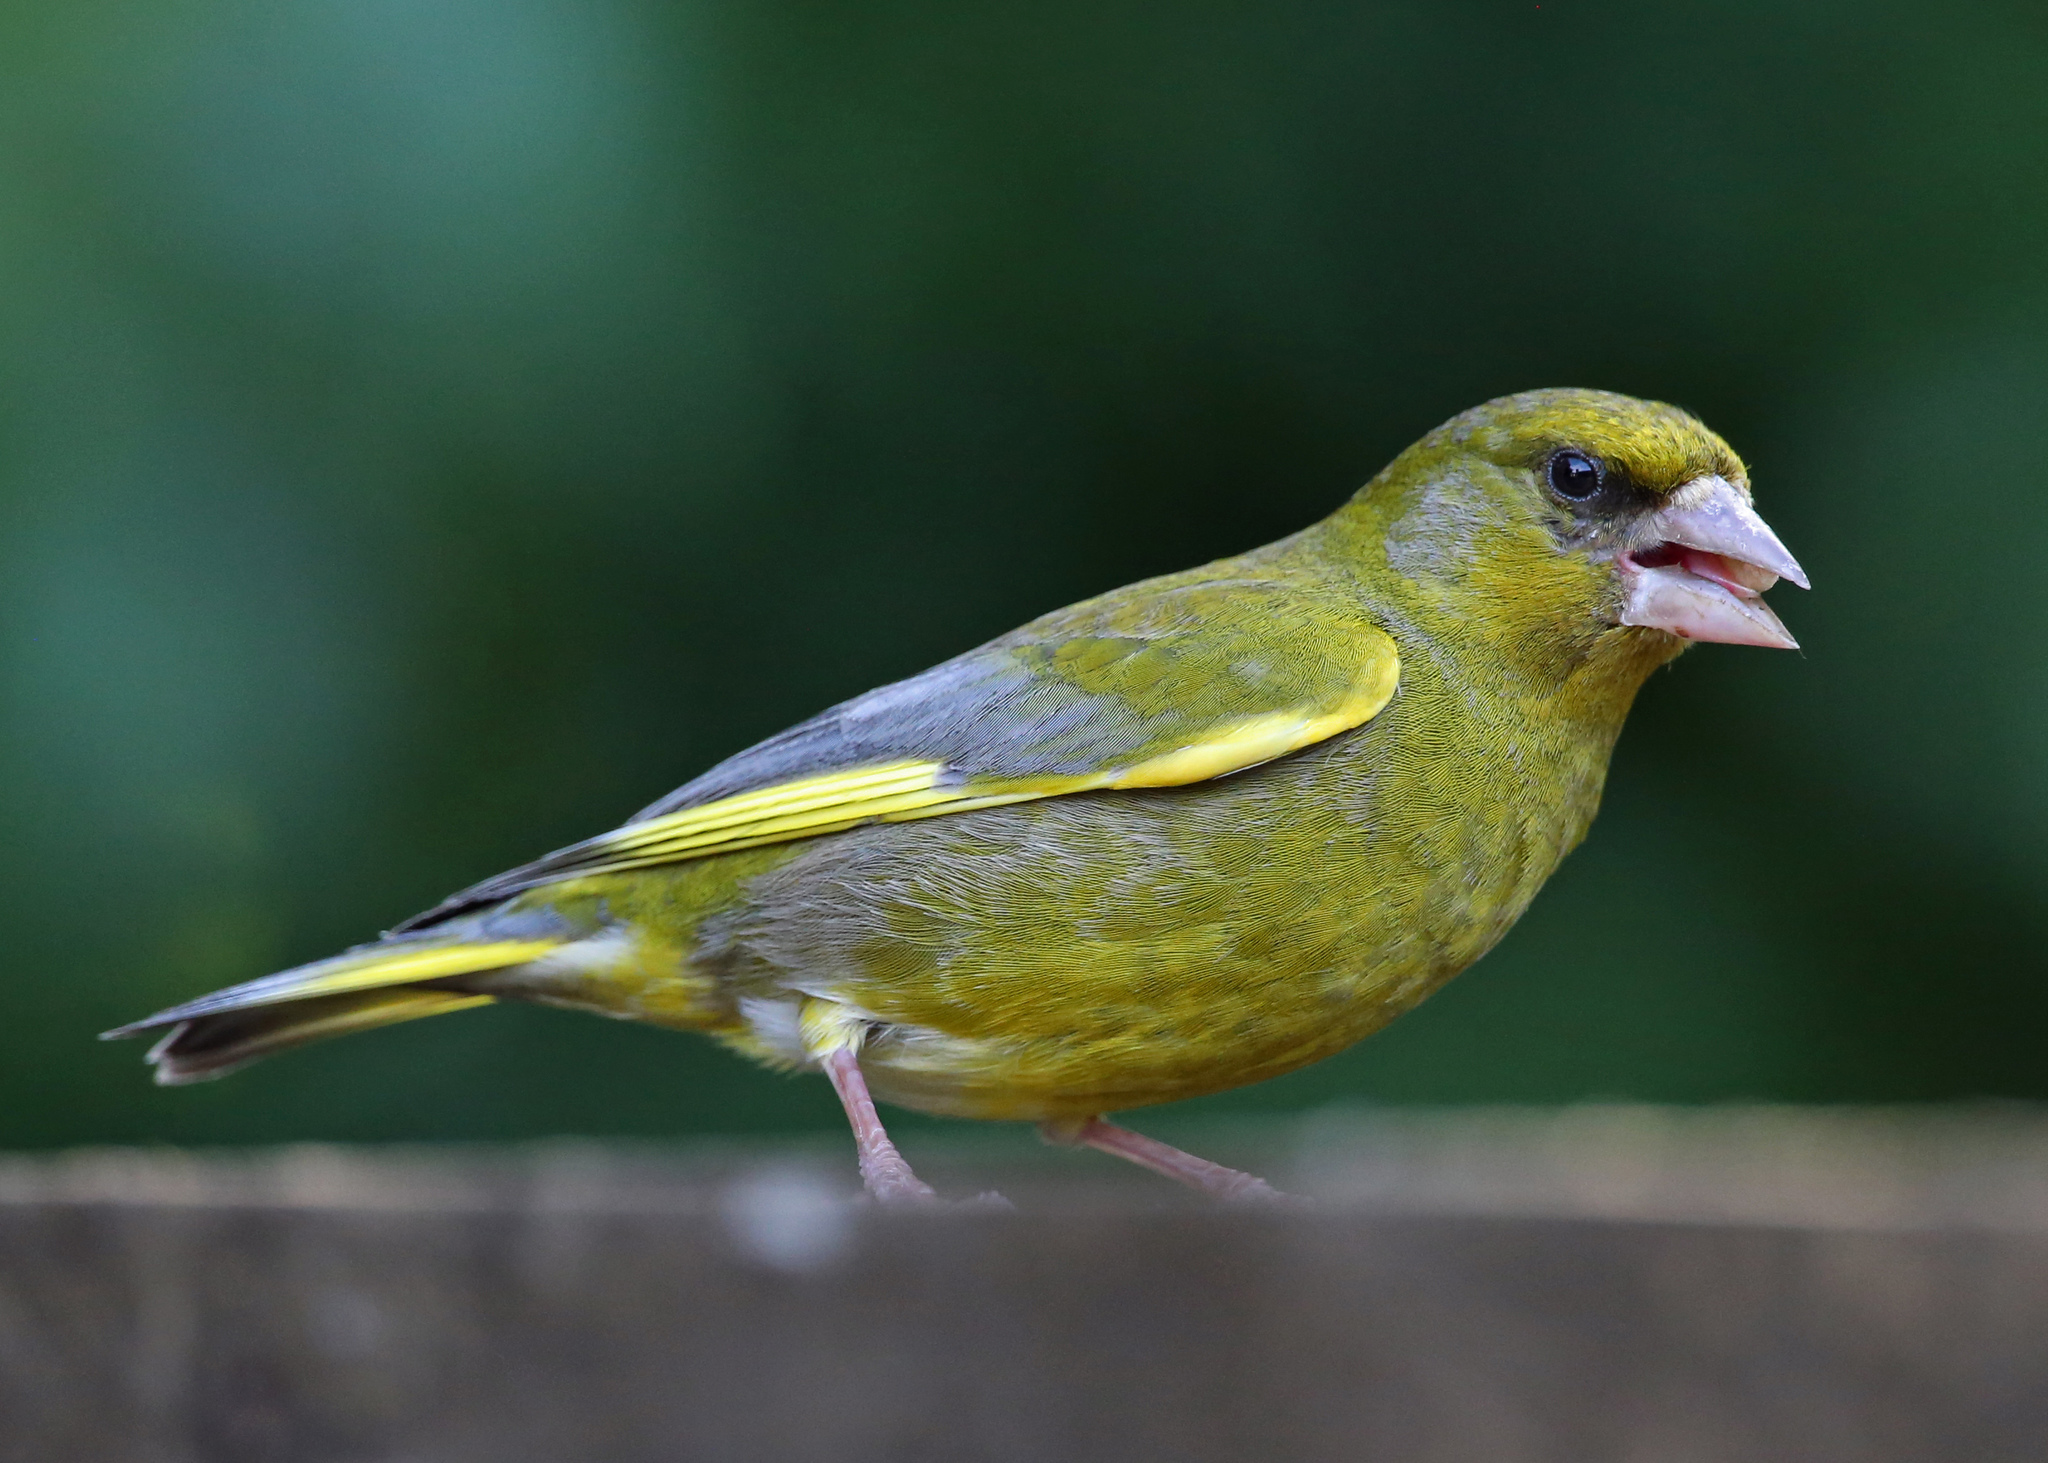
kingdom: Plantae
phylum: Tracheophyta
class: Liliopsida
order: Poales
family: Poaceae
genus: Chloris
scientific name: Chloris chloris
